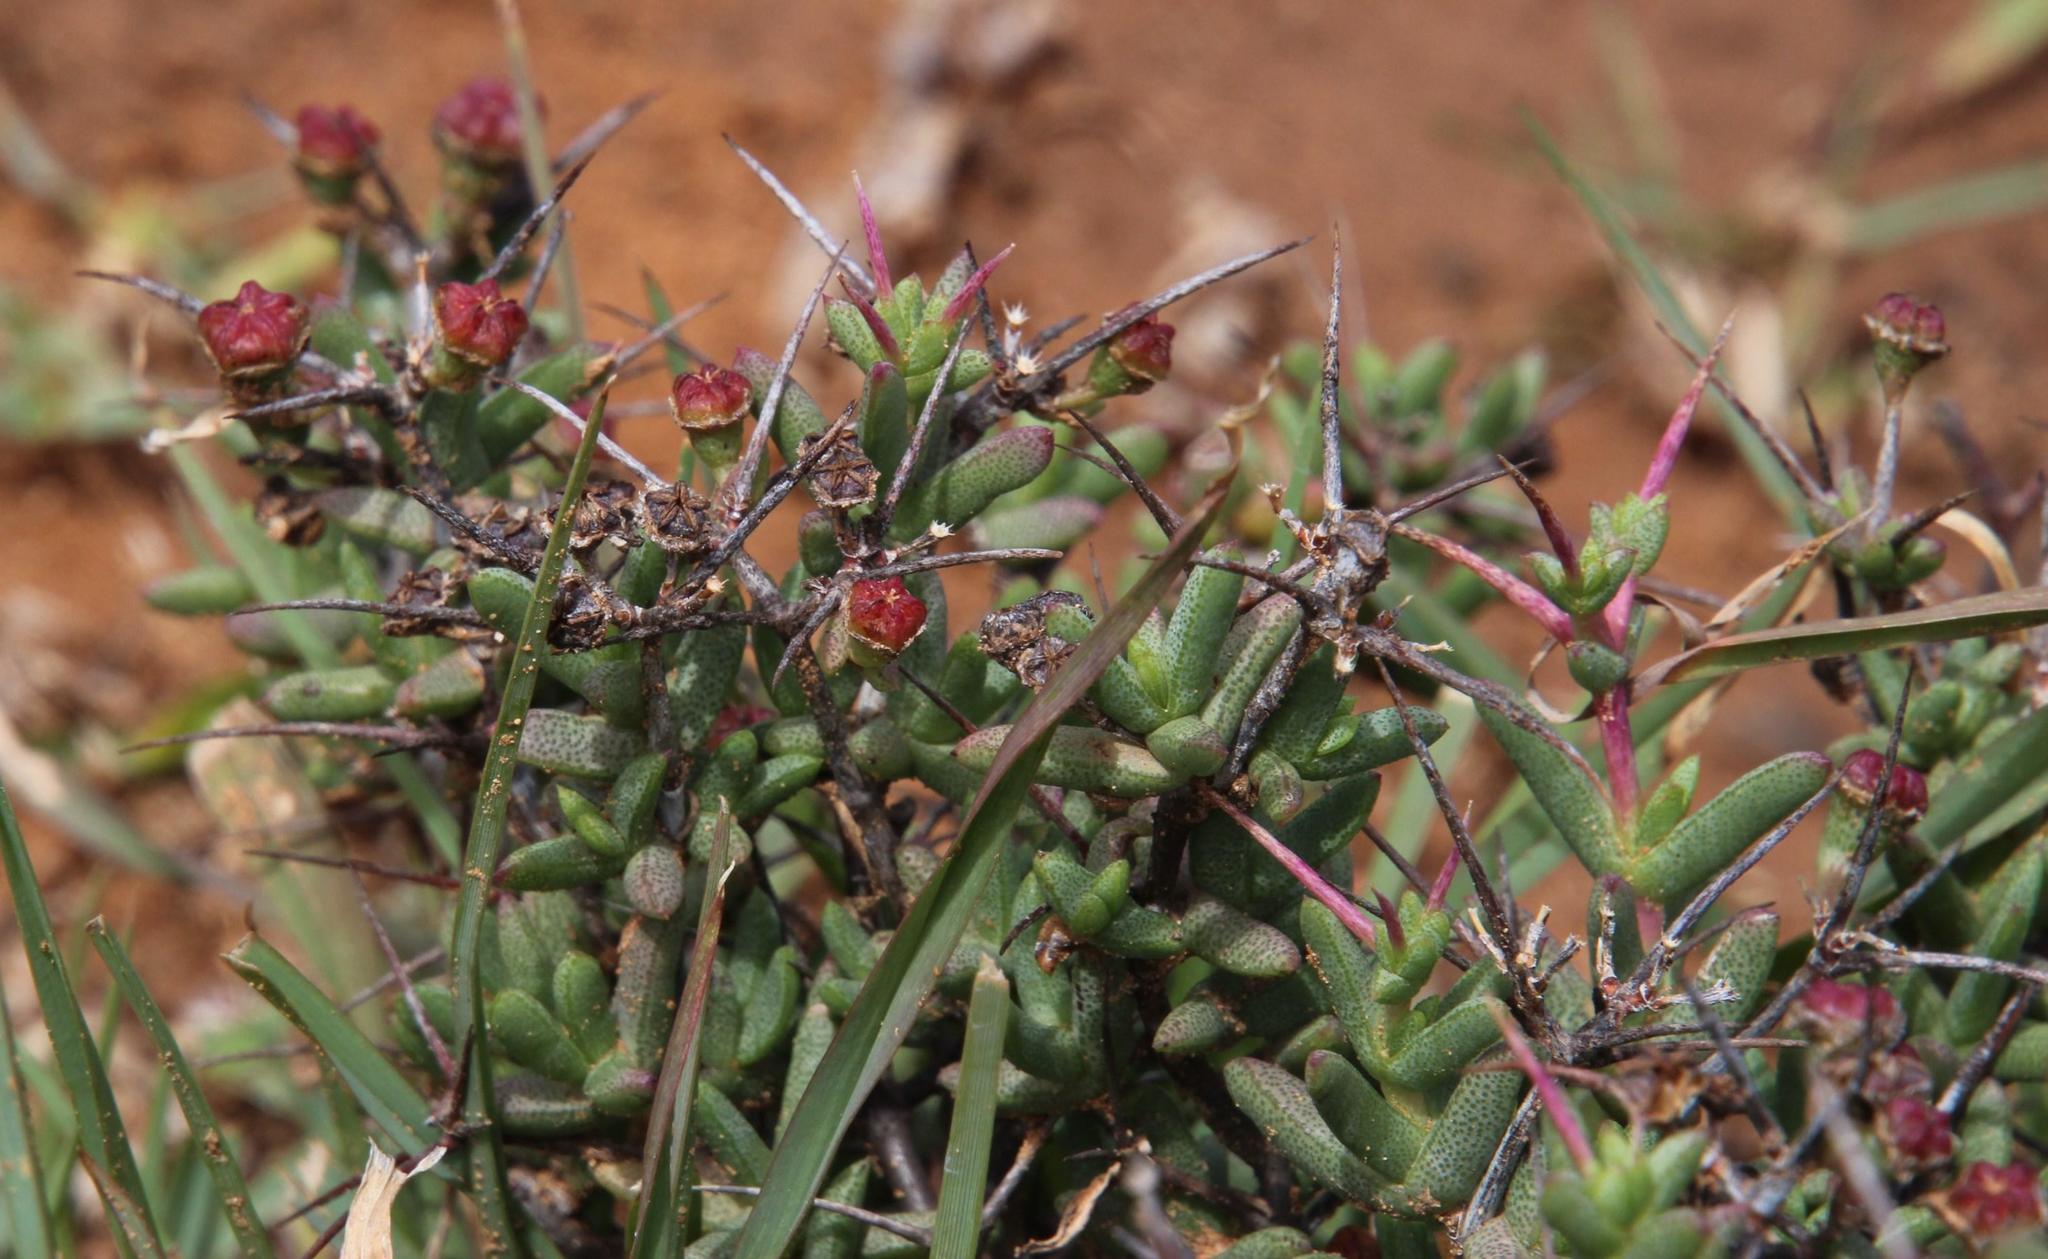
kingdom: Plantae
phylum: Tracheophyta
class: Magnoliopsida
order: Caryophyllales
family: Aizoaceae
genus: Ruschia
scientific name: Ruschia cradockensis
